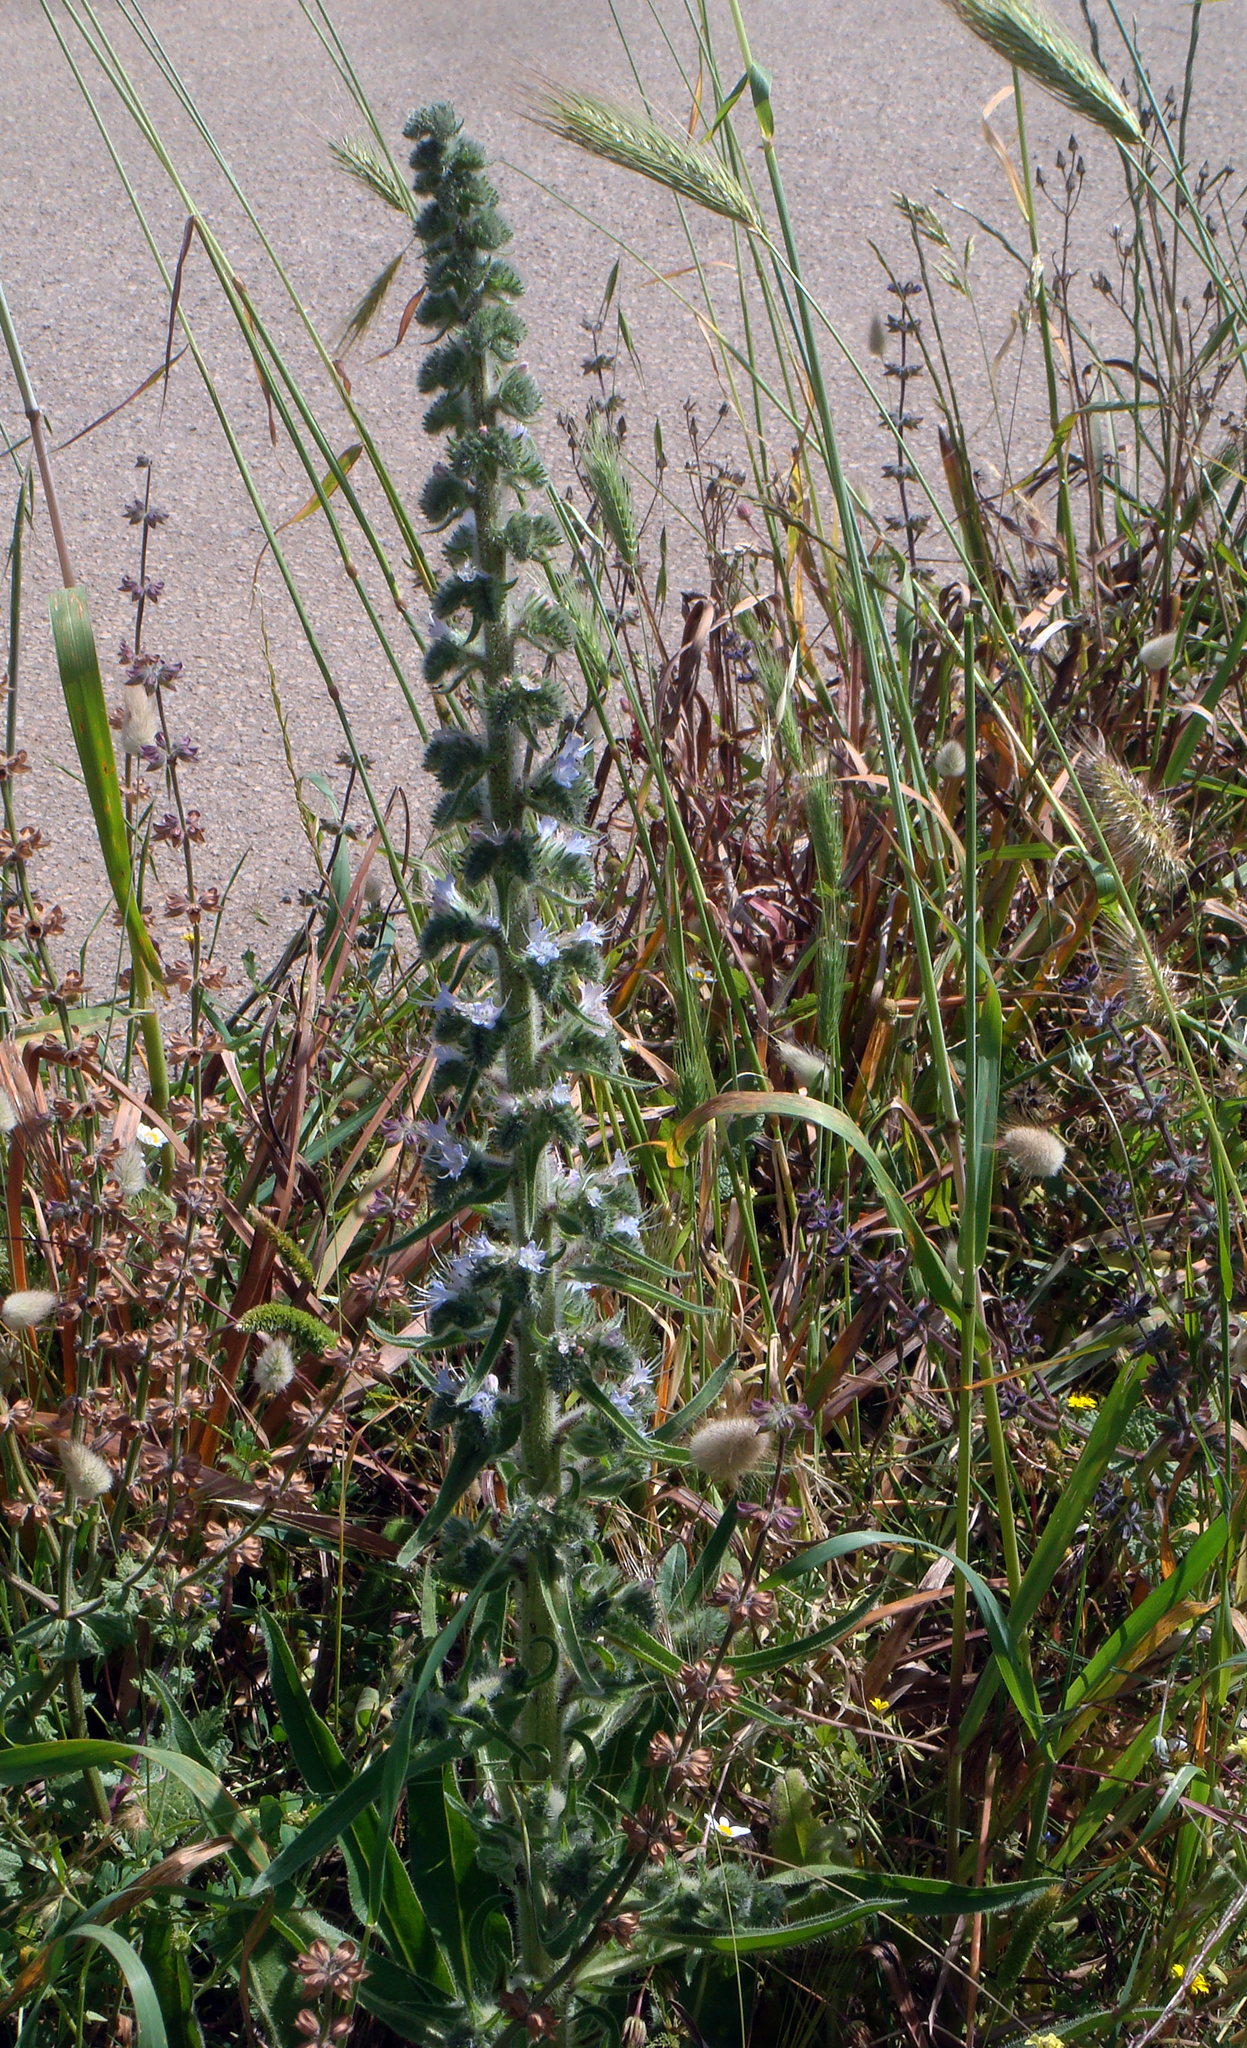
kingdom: Plantae
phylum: Tracheophyta
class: Magnoliopsida
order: Boraginales
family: Boraginaceae
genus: Echium
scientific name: Echium italicum
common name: Italian viper's bugloss
